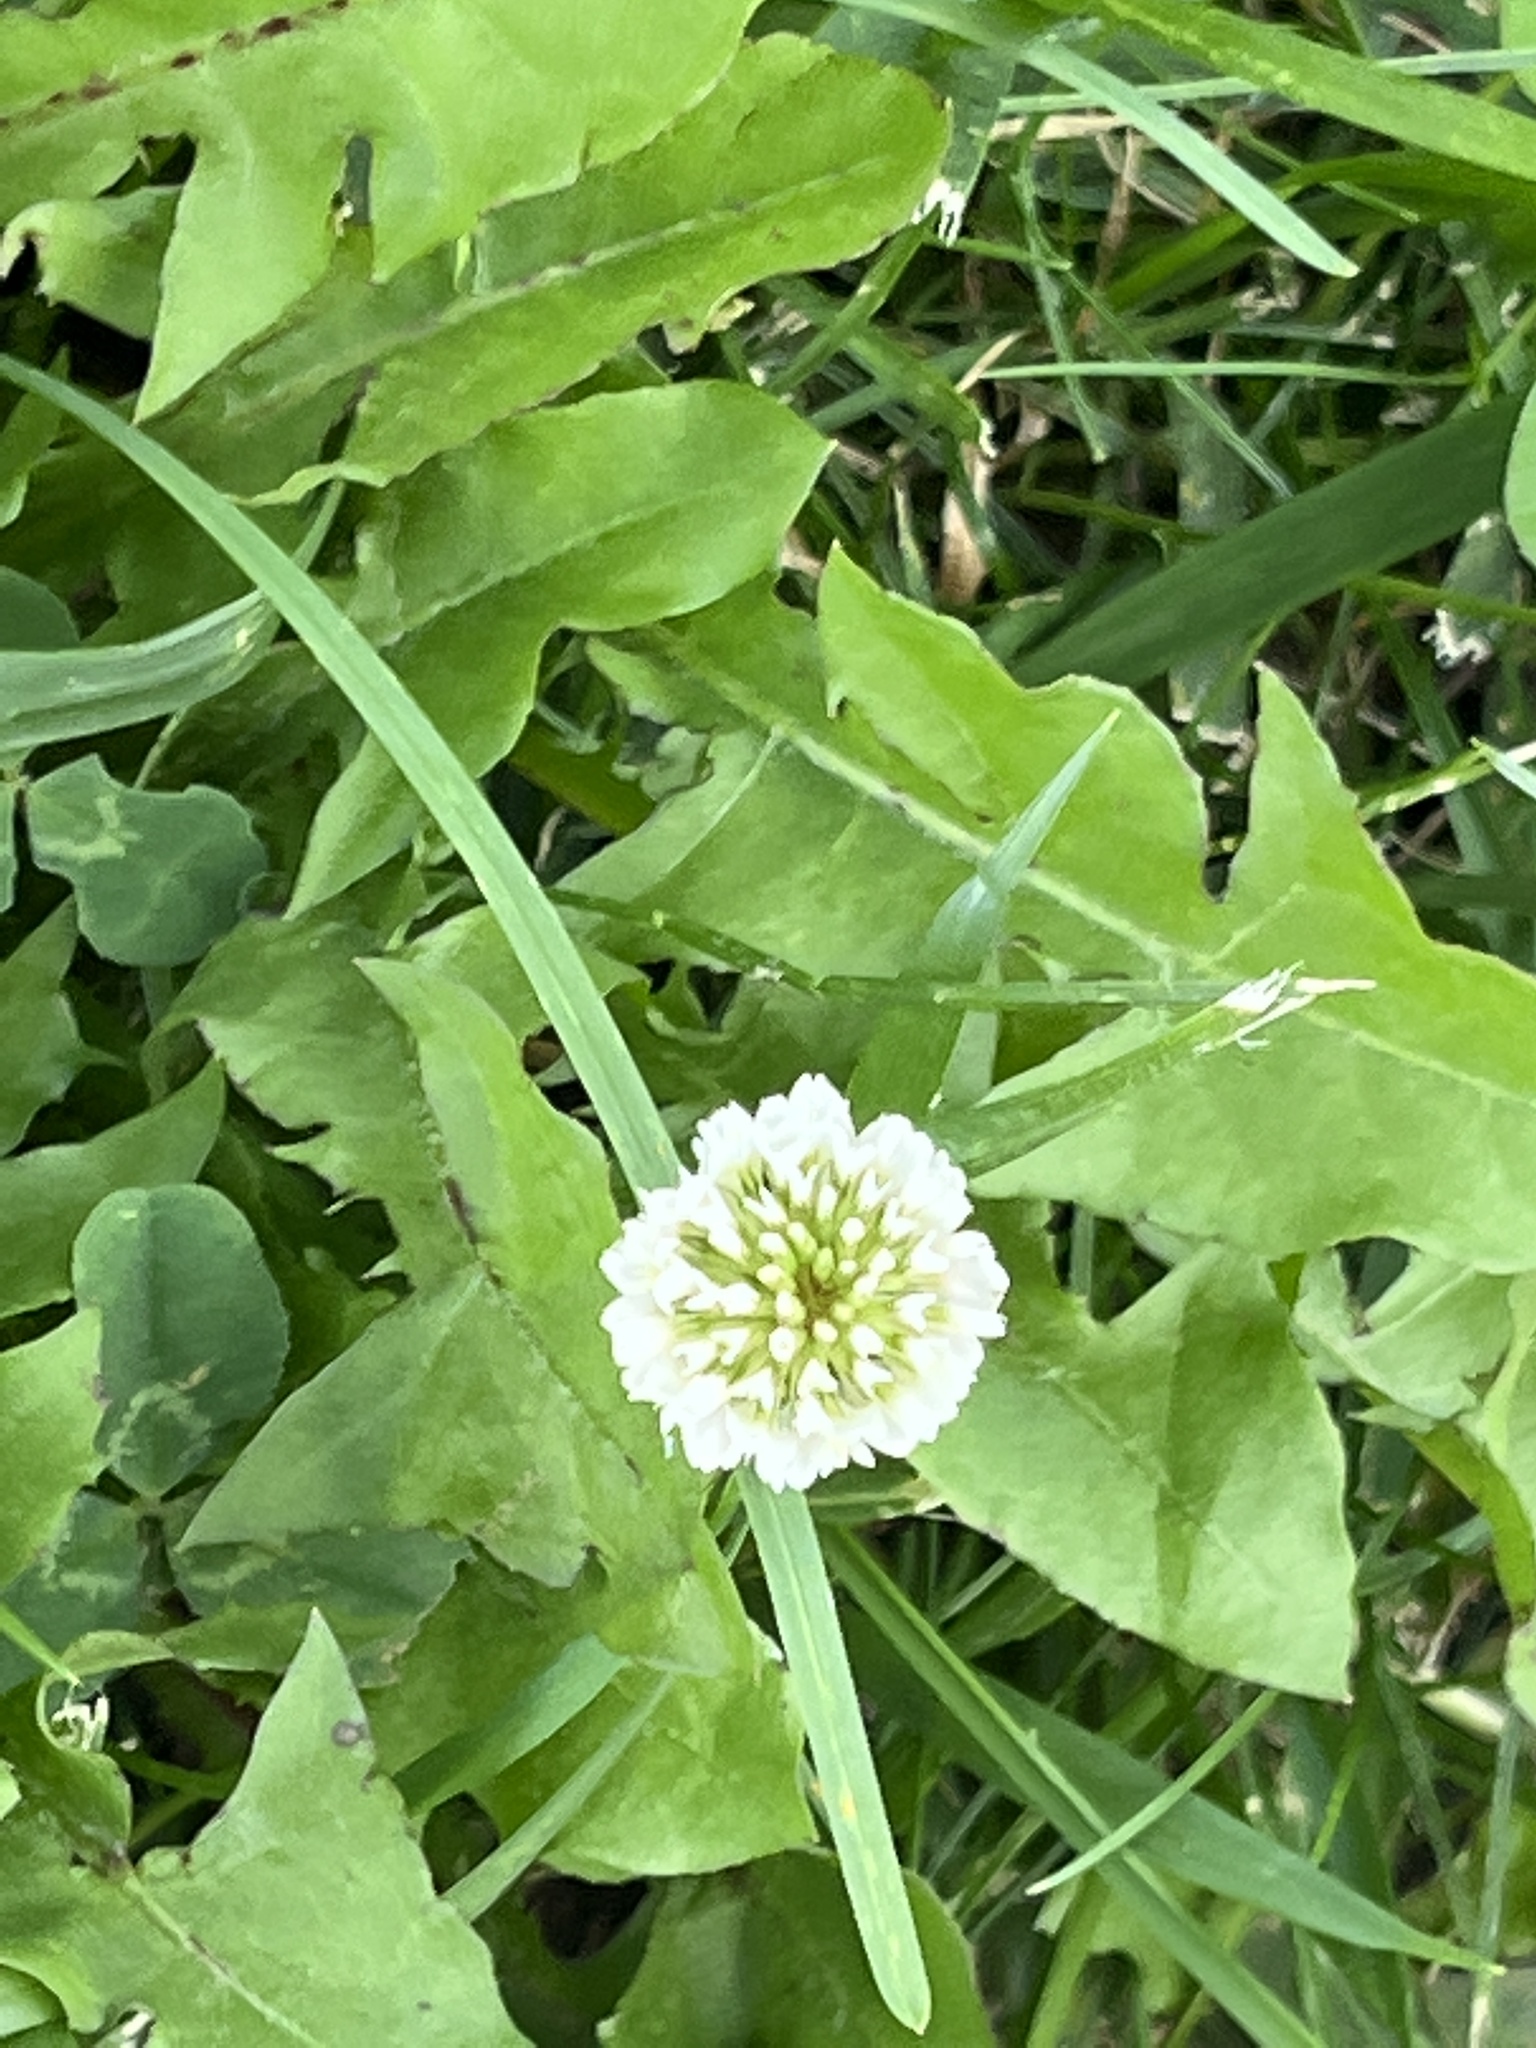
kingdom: Plantae
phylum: Tracheophyta
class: Magnoliopsida
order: Fabales
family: Fabaceae
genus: Trifolium
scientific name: Trifolium repens
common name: White clover
